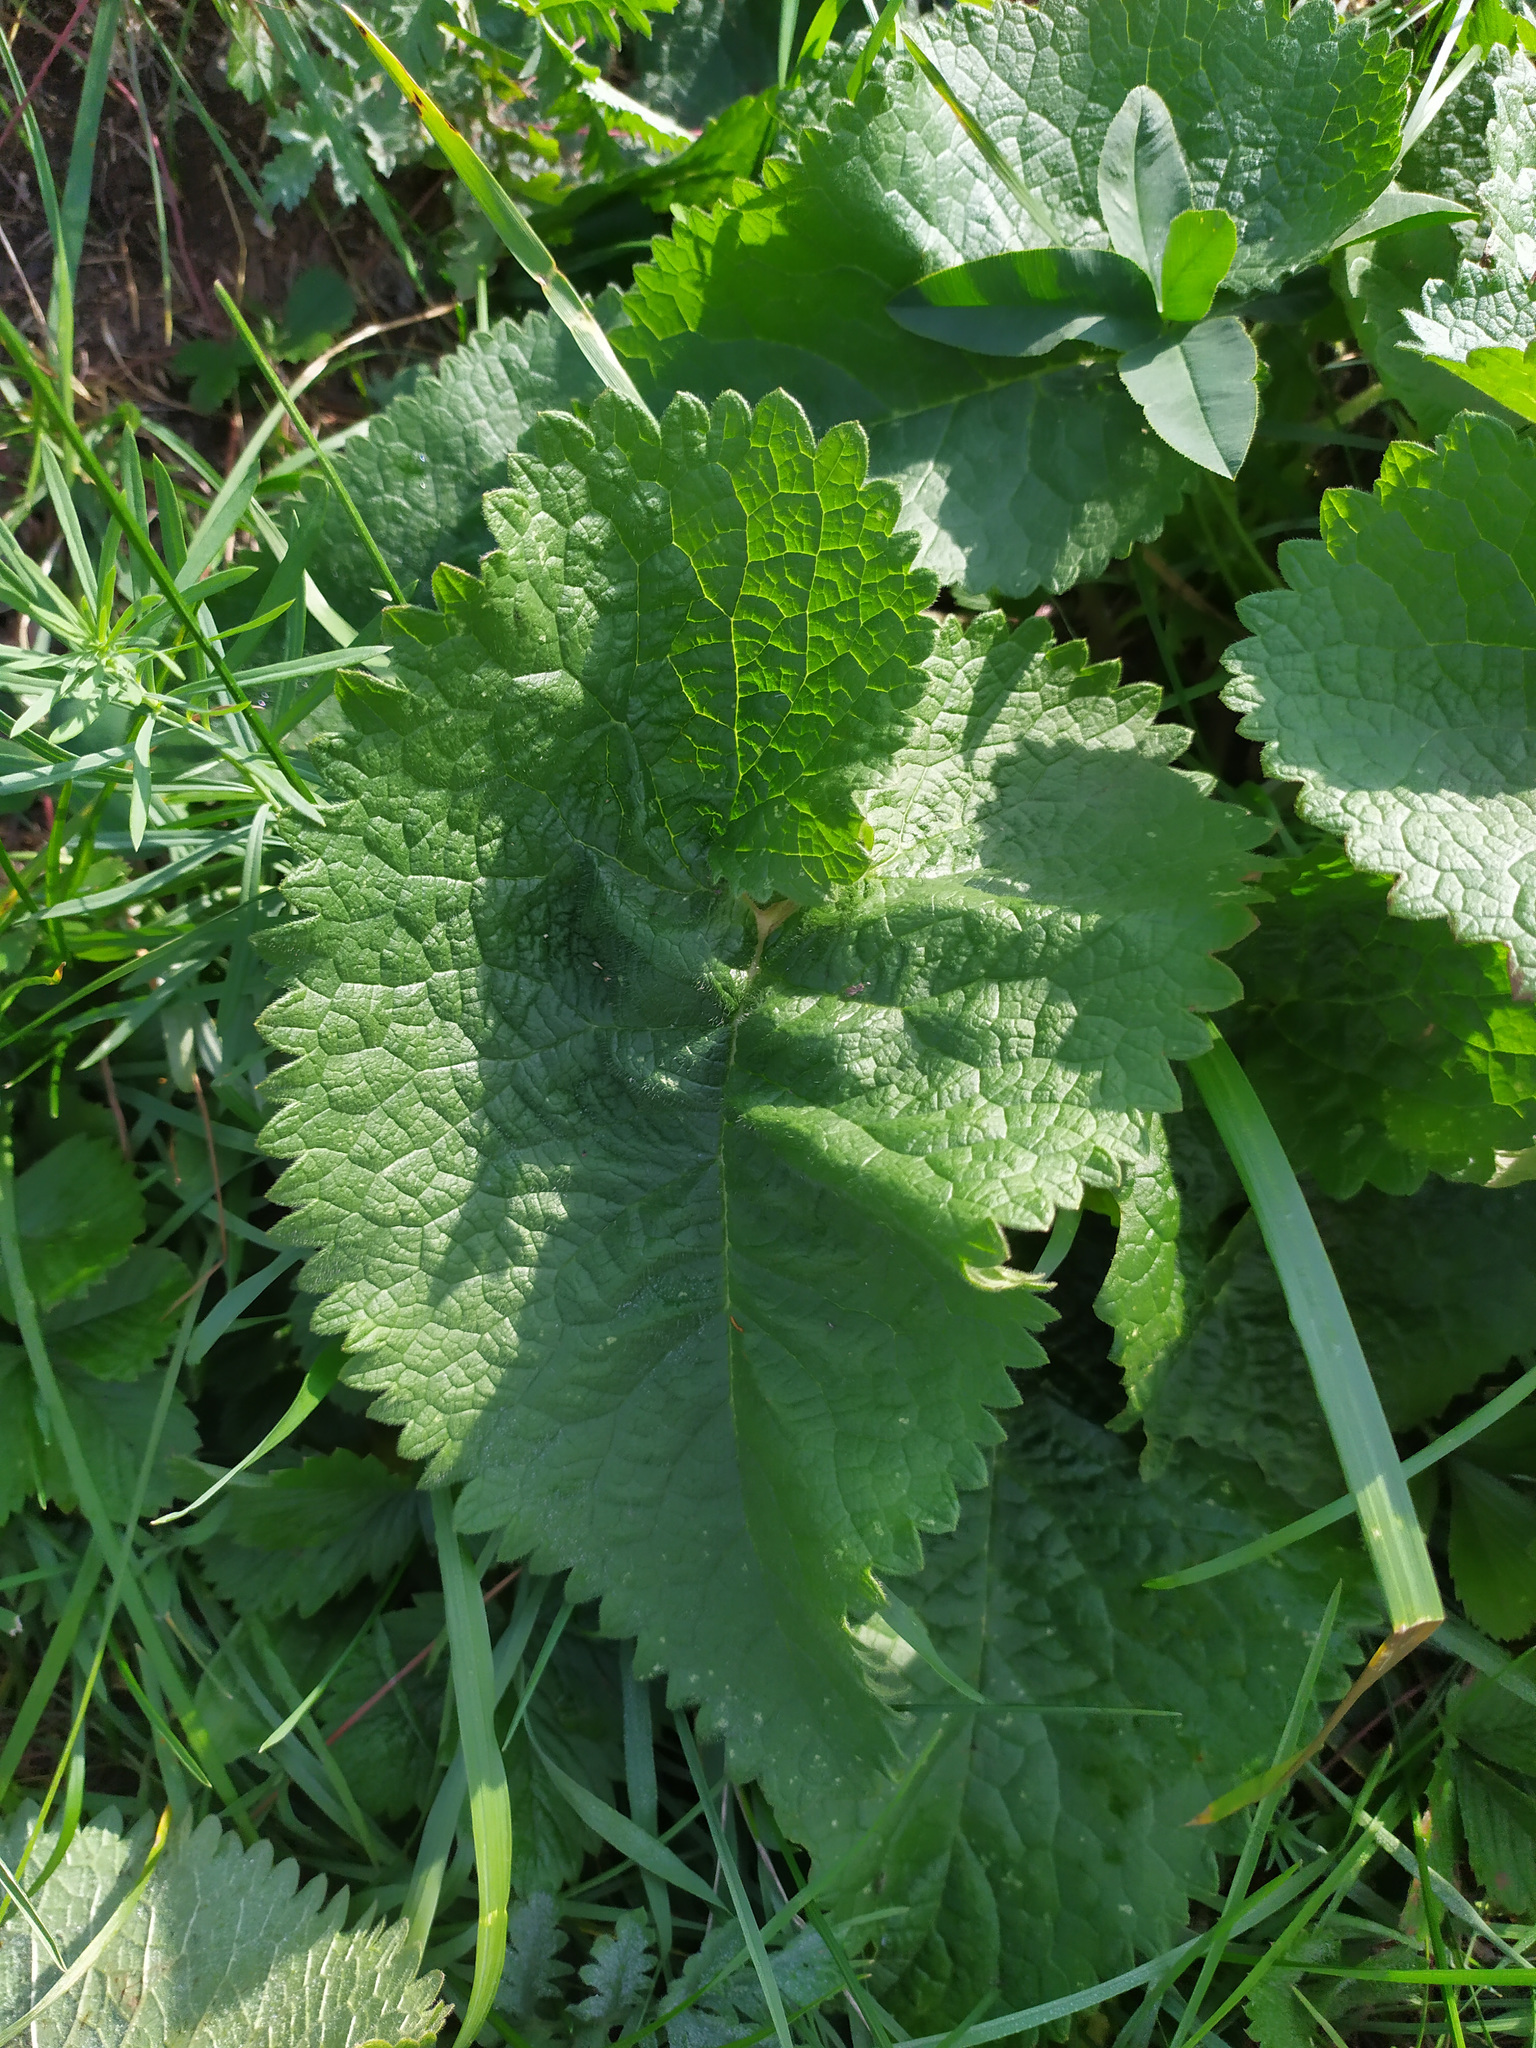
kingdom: Plantae
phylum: Tracheophyta
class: Magnoliopsida
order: Lamiales
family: Lamiaceae
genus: Phlomoides
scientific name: Phlomoides tuberosa
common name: Tuberous jerusalem sage
